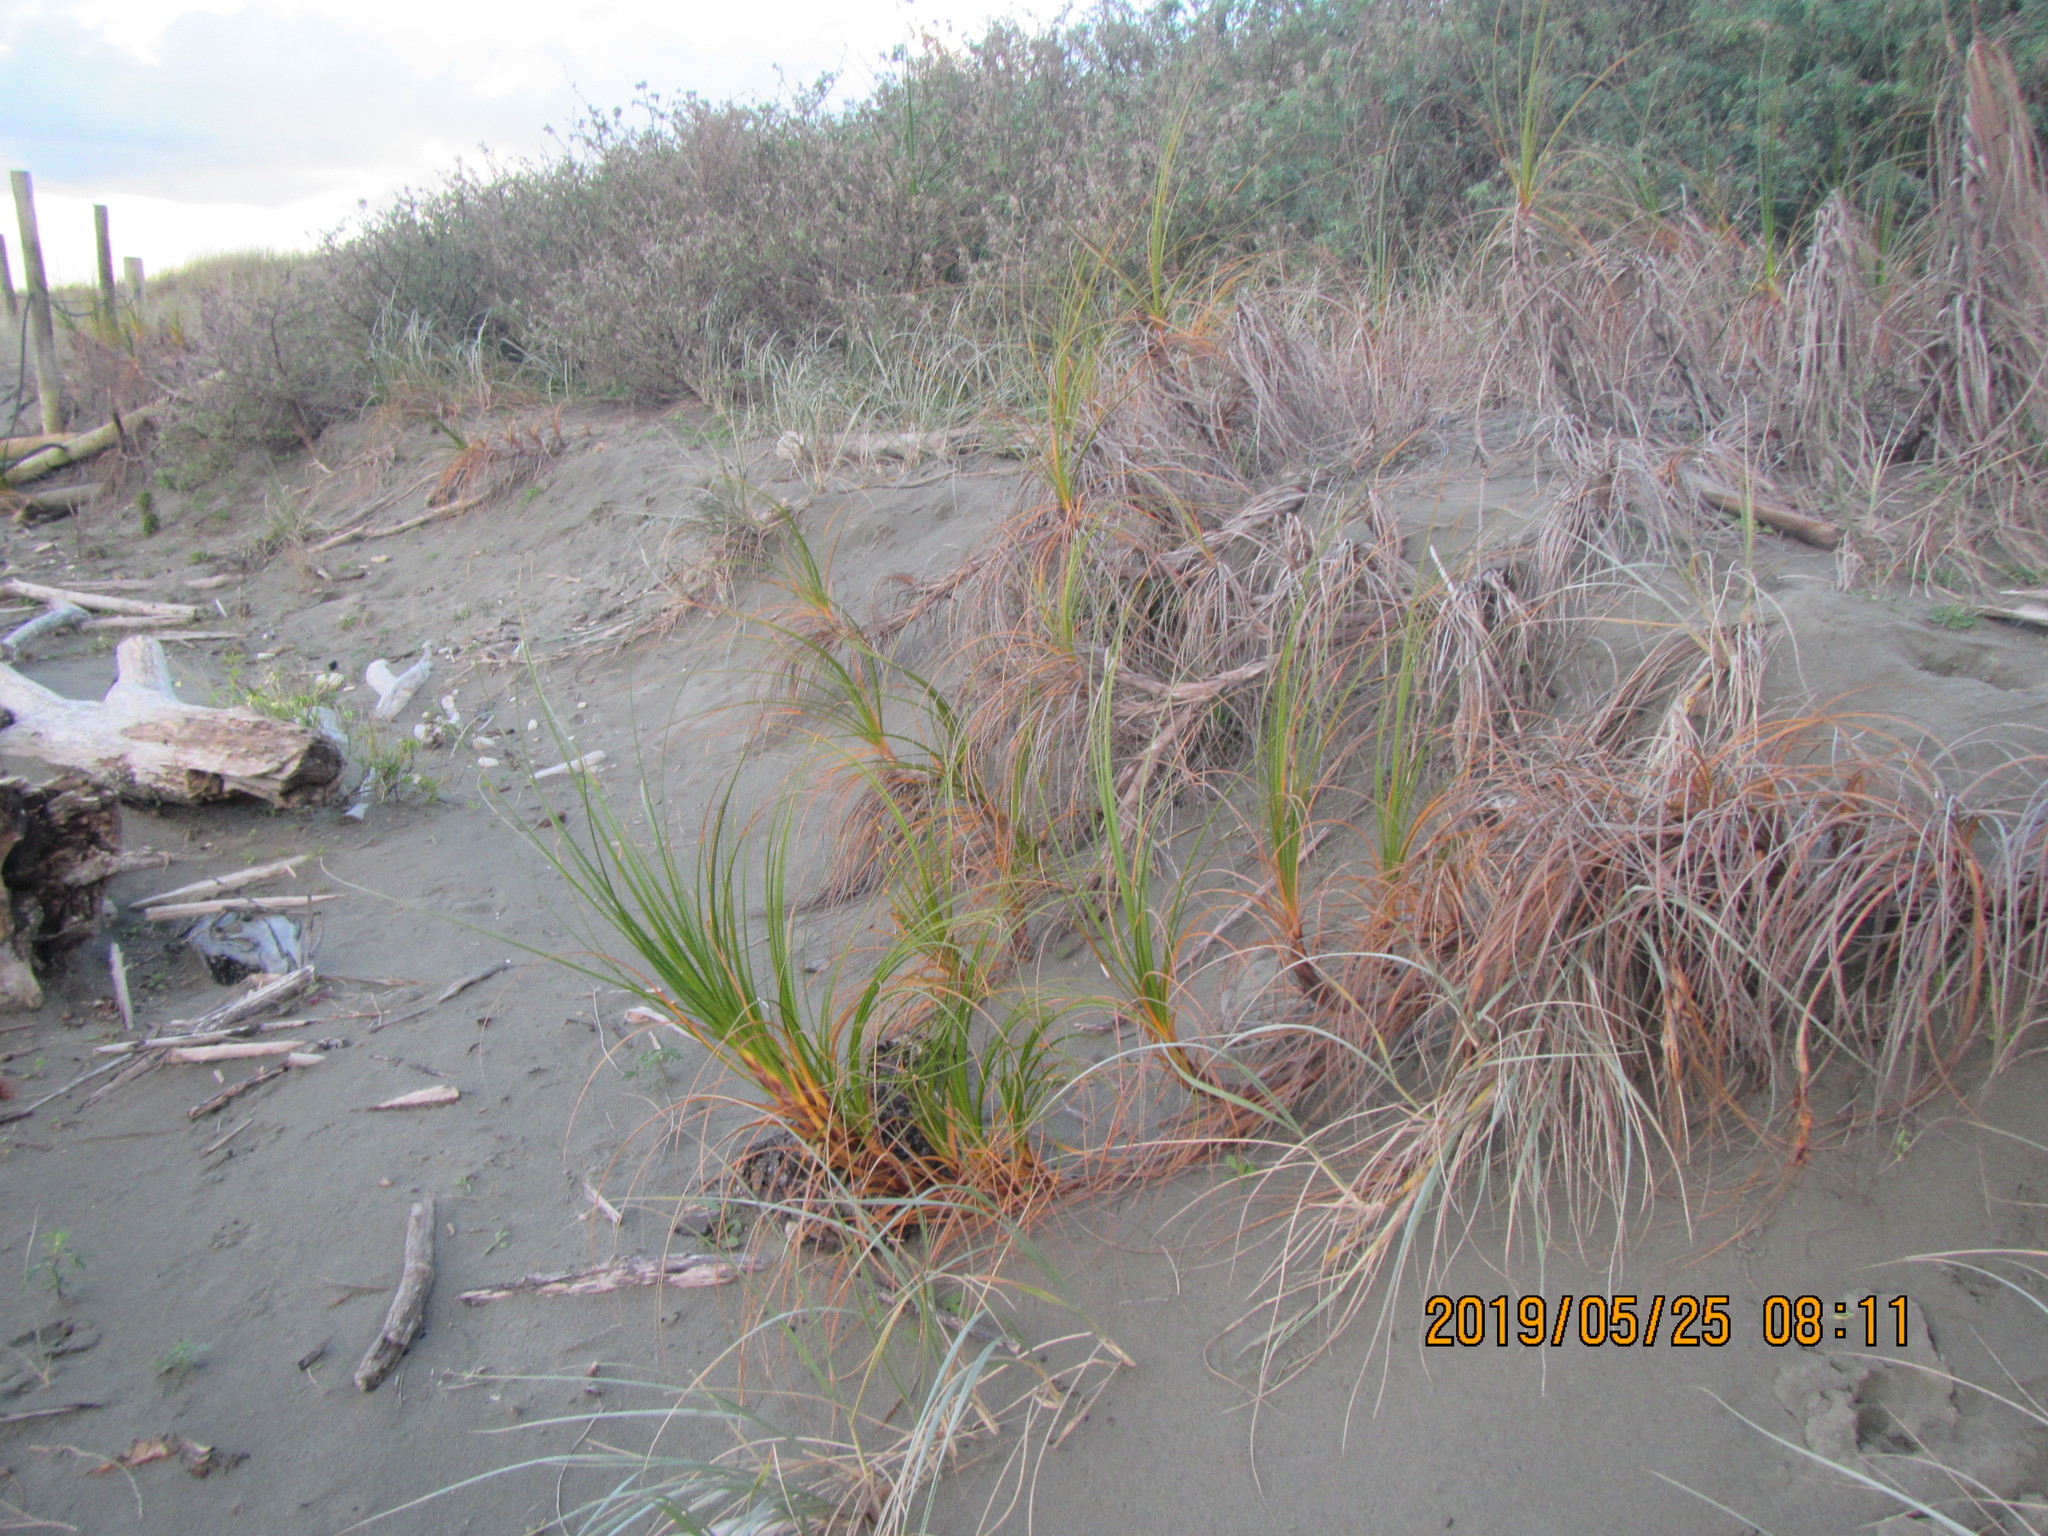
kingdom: Plantae
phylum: Tracheophyta
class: Liliopsida
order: Poales
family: Cyperaceae
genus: Ficinia
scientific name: Ficinia spiralis
